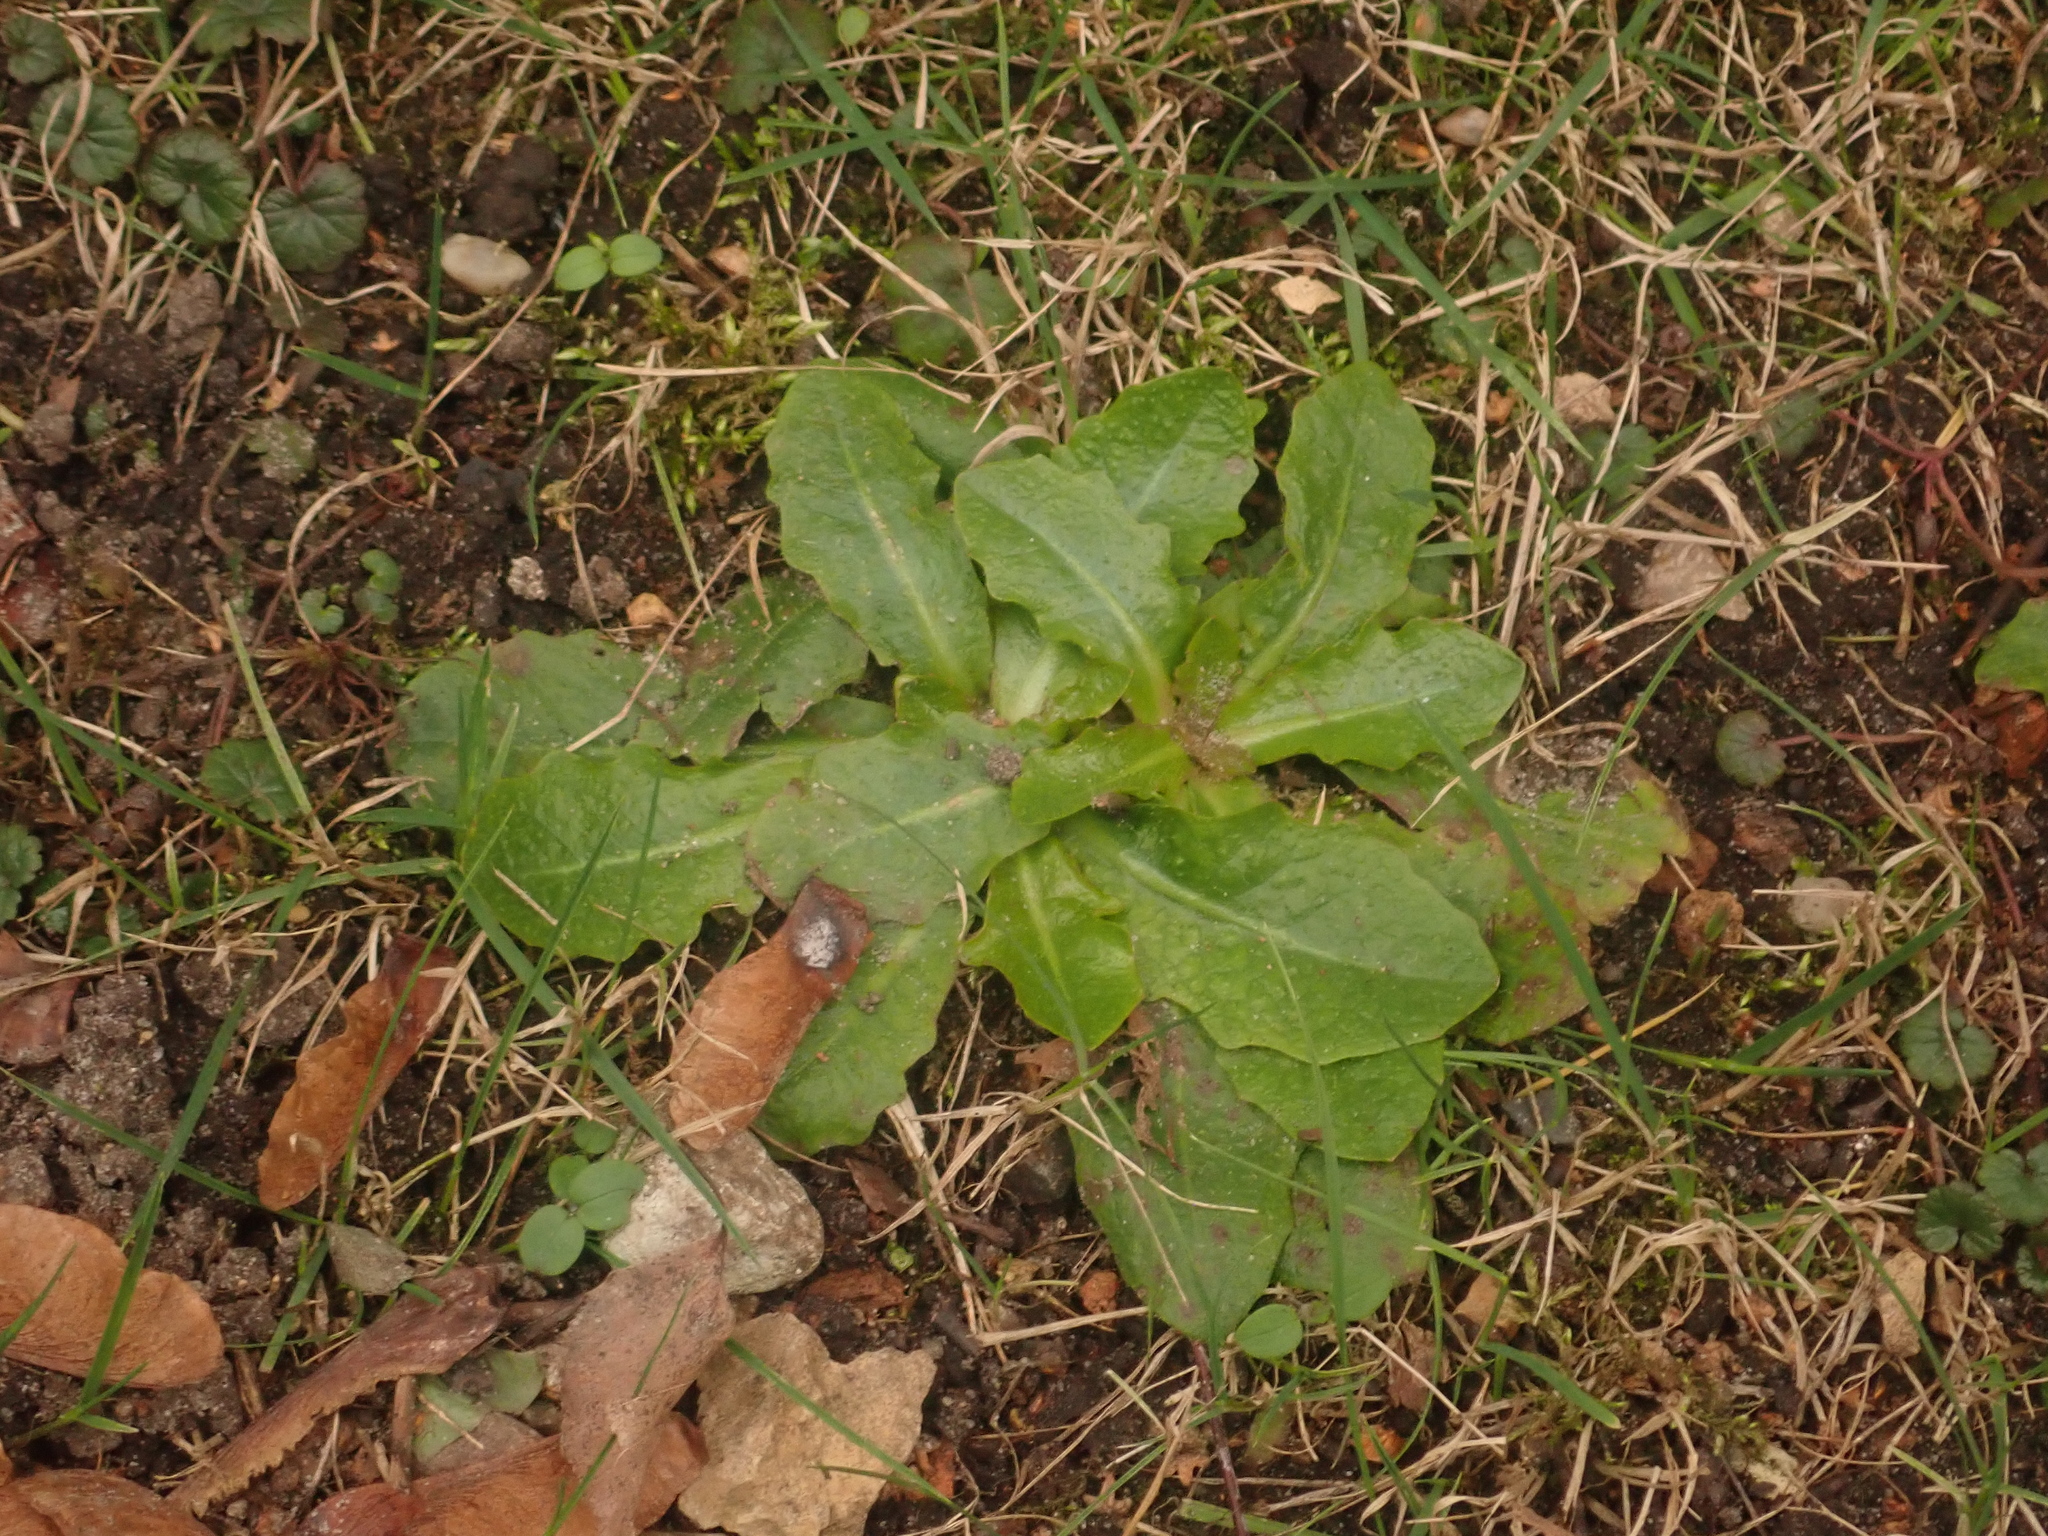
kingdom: Plantae
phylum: Tracheophyta
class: Magnoliopsida
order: Asterales
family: Asteraceae
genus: Hypochaeris
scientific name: Hypochaeris radicata
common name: Flatweed
